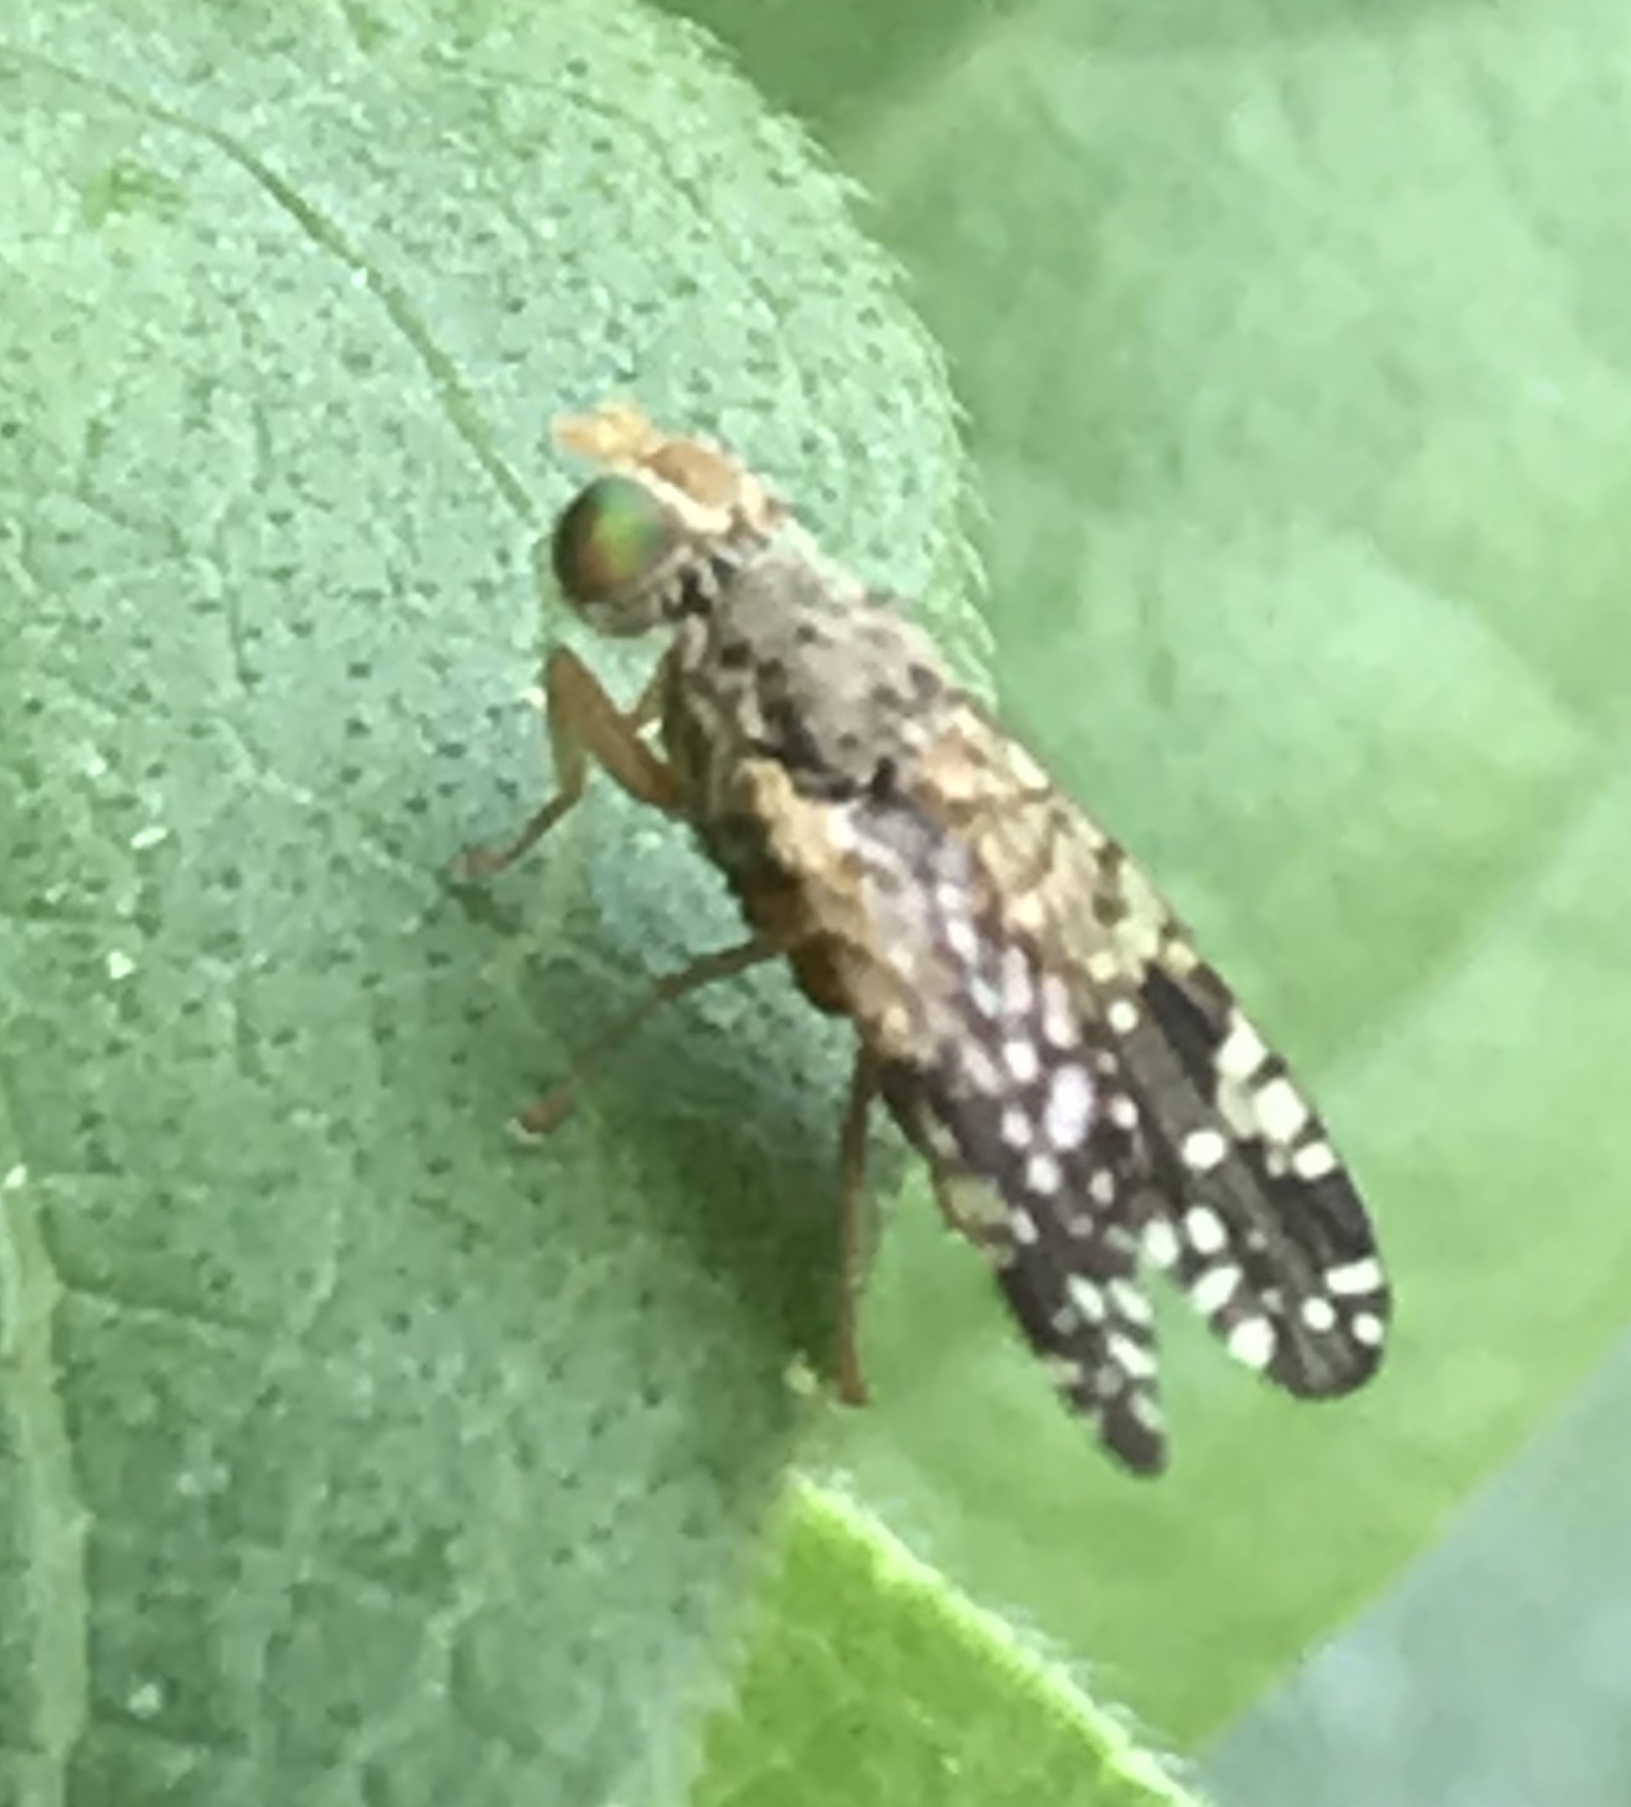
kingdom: Animalia
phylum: Arthropoda
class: Insecta
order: Diptera
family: Tephritidae
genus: Neotephritis
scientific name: Neotephritis finalis
